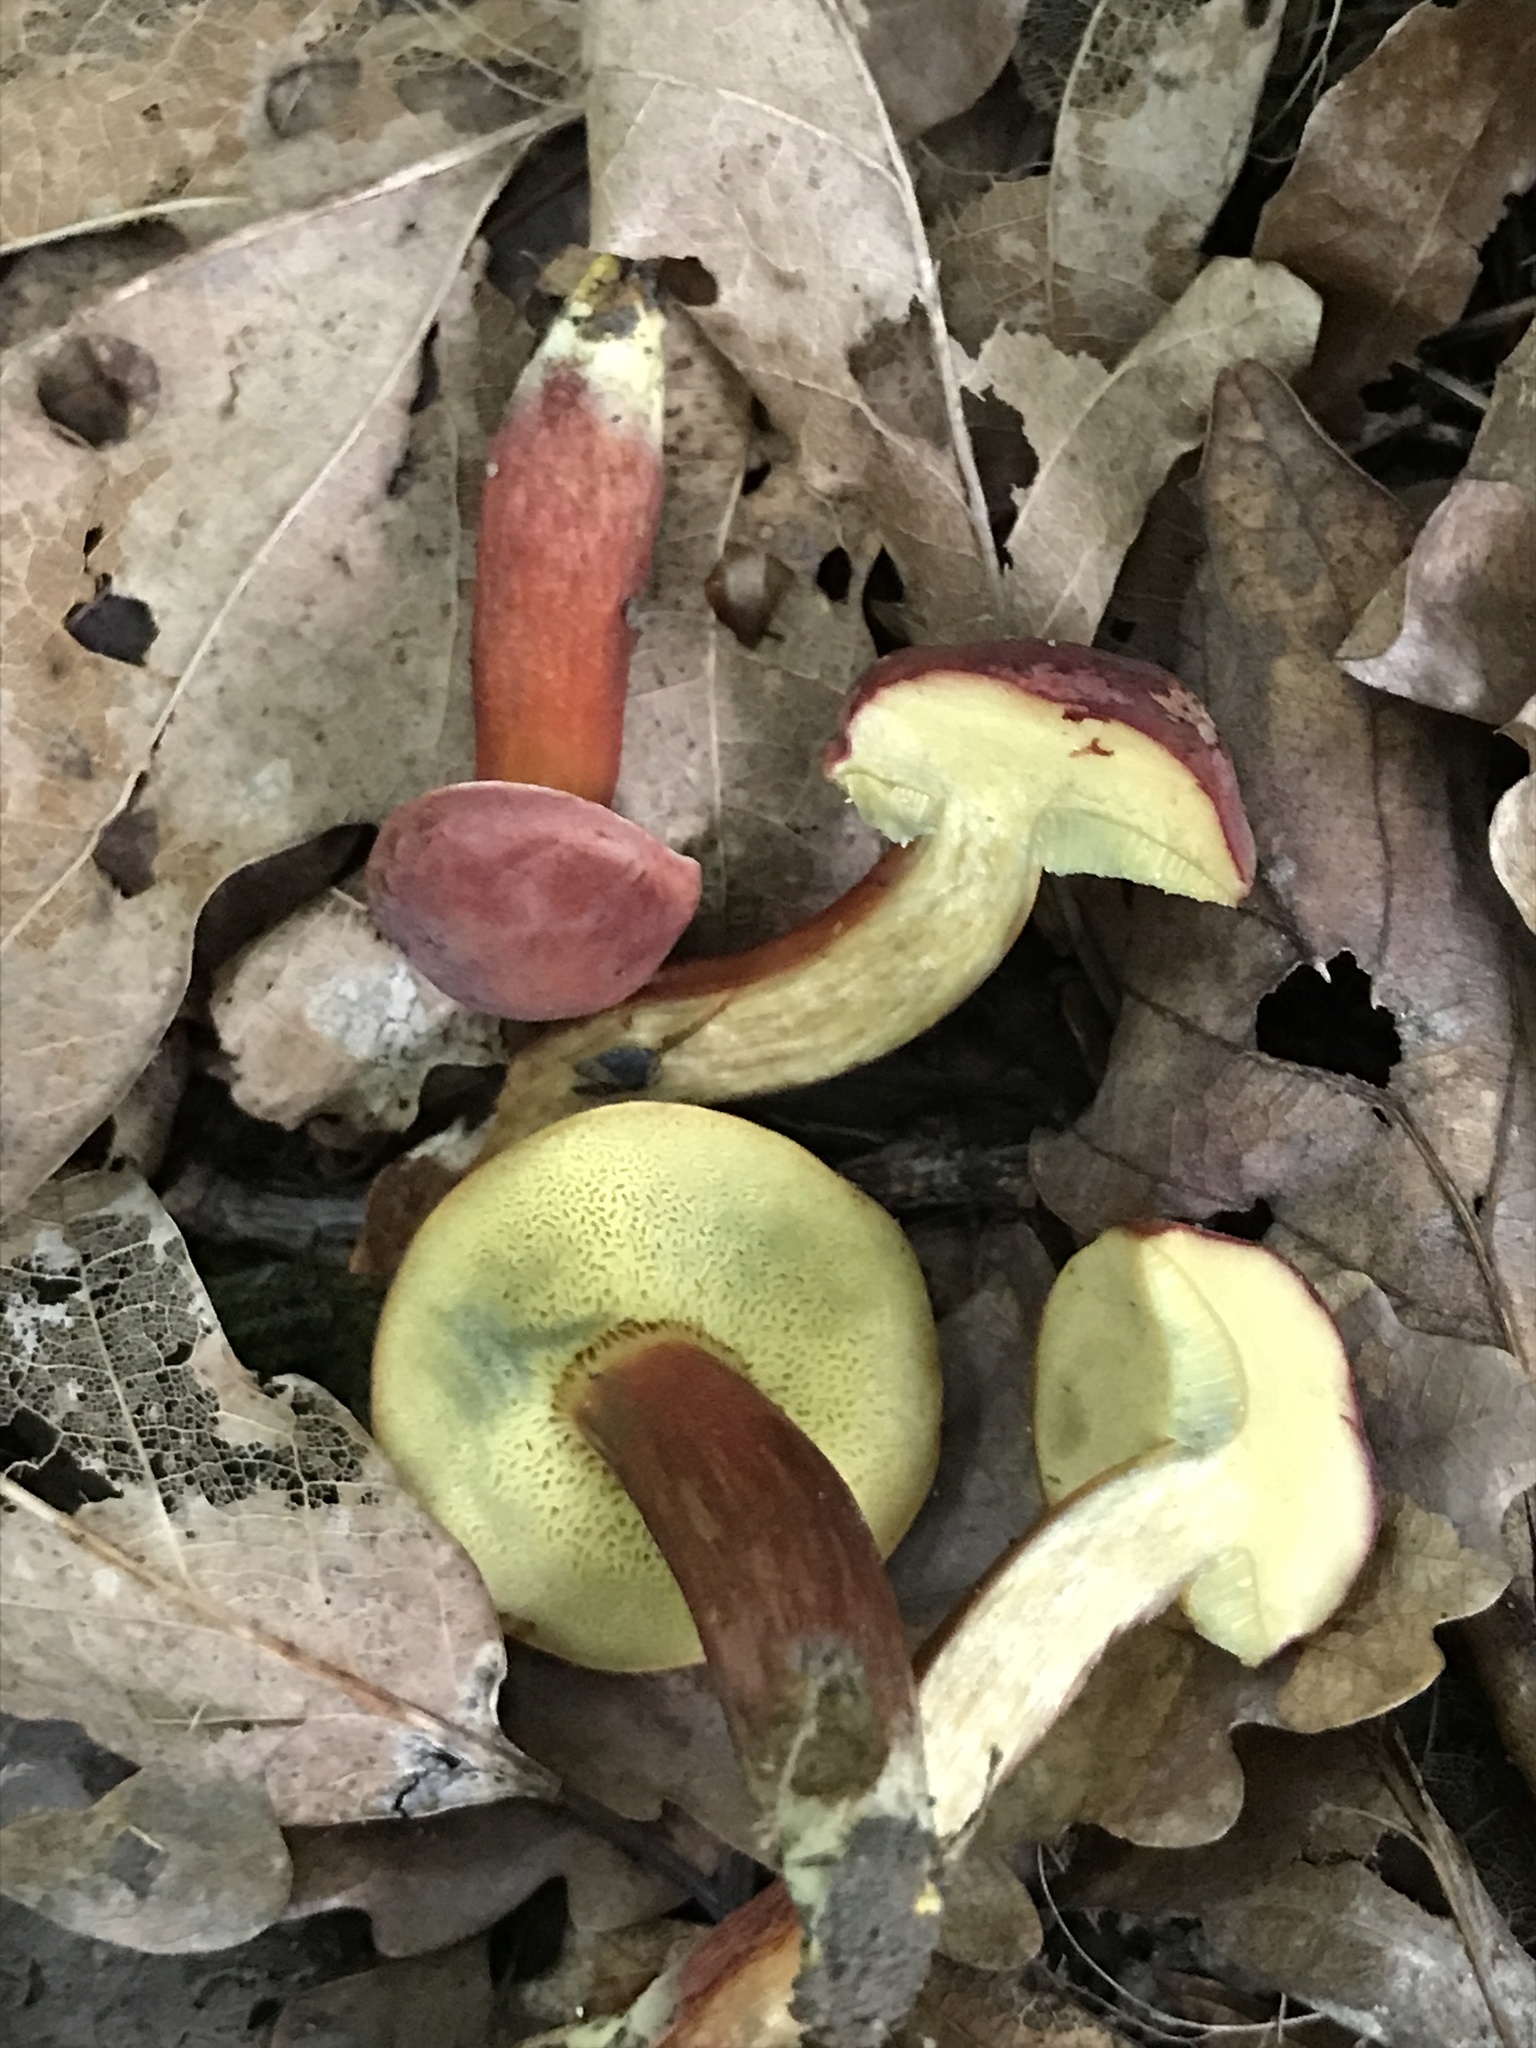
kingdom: Fungi
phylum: Basidiomycota
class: Agaricomycetes
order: Boletales
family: Boletaceae
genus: Hortiboletus
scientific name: Hortiboletus rubellus
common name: Ruby bolete
